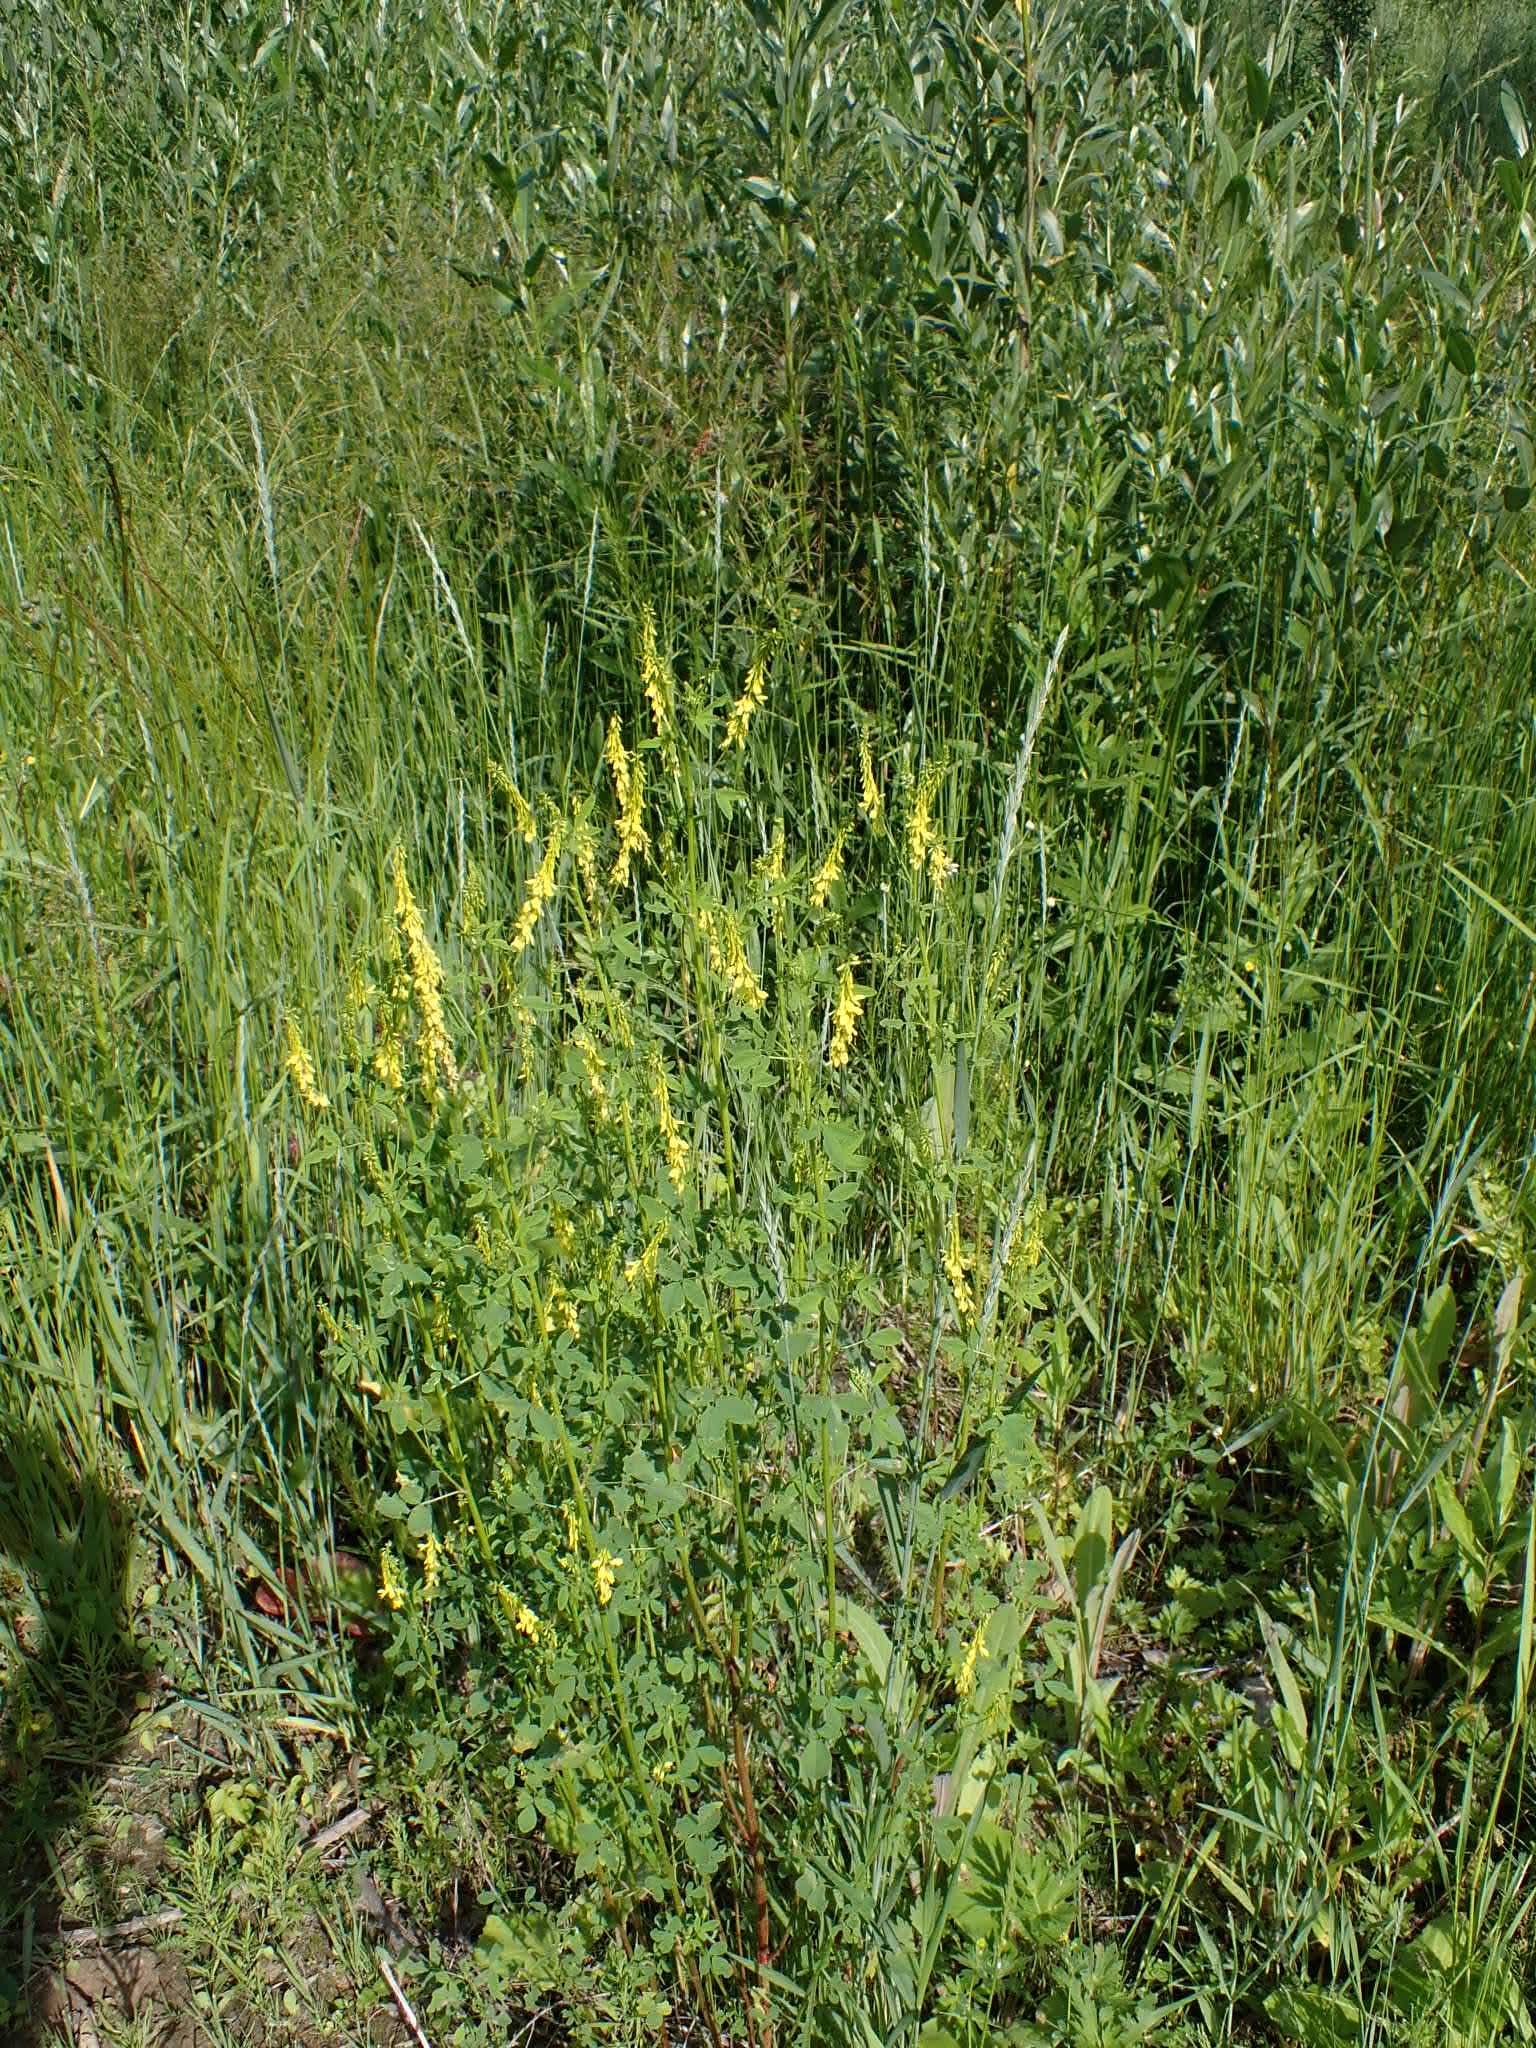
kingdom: Plantae
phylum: Tracheophyta
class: Magnoliopsida
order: Fabales
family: Fabaceae
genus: Melilotus
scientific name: Melilotus officinalis
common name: Sweetclover
